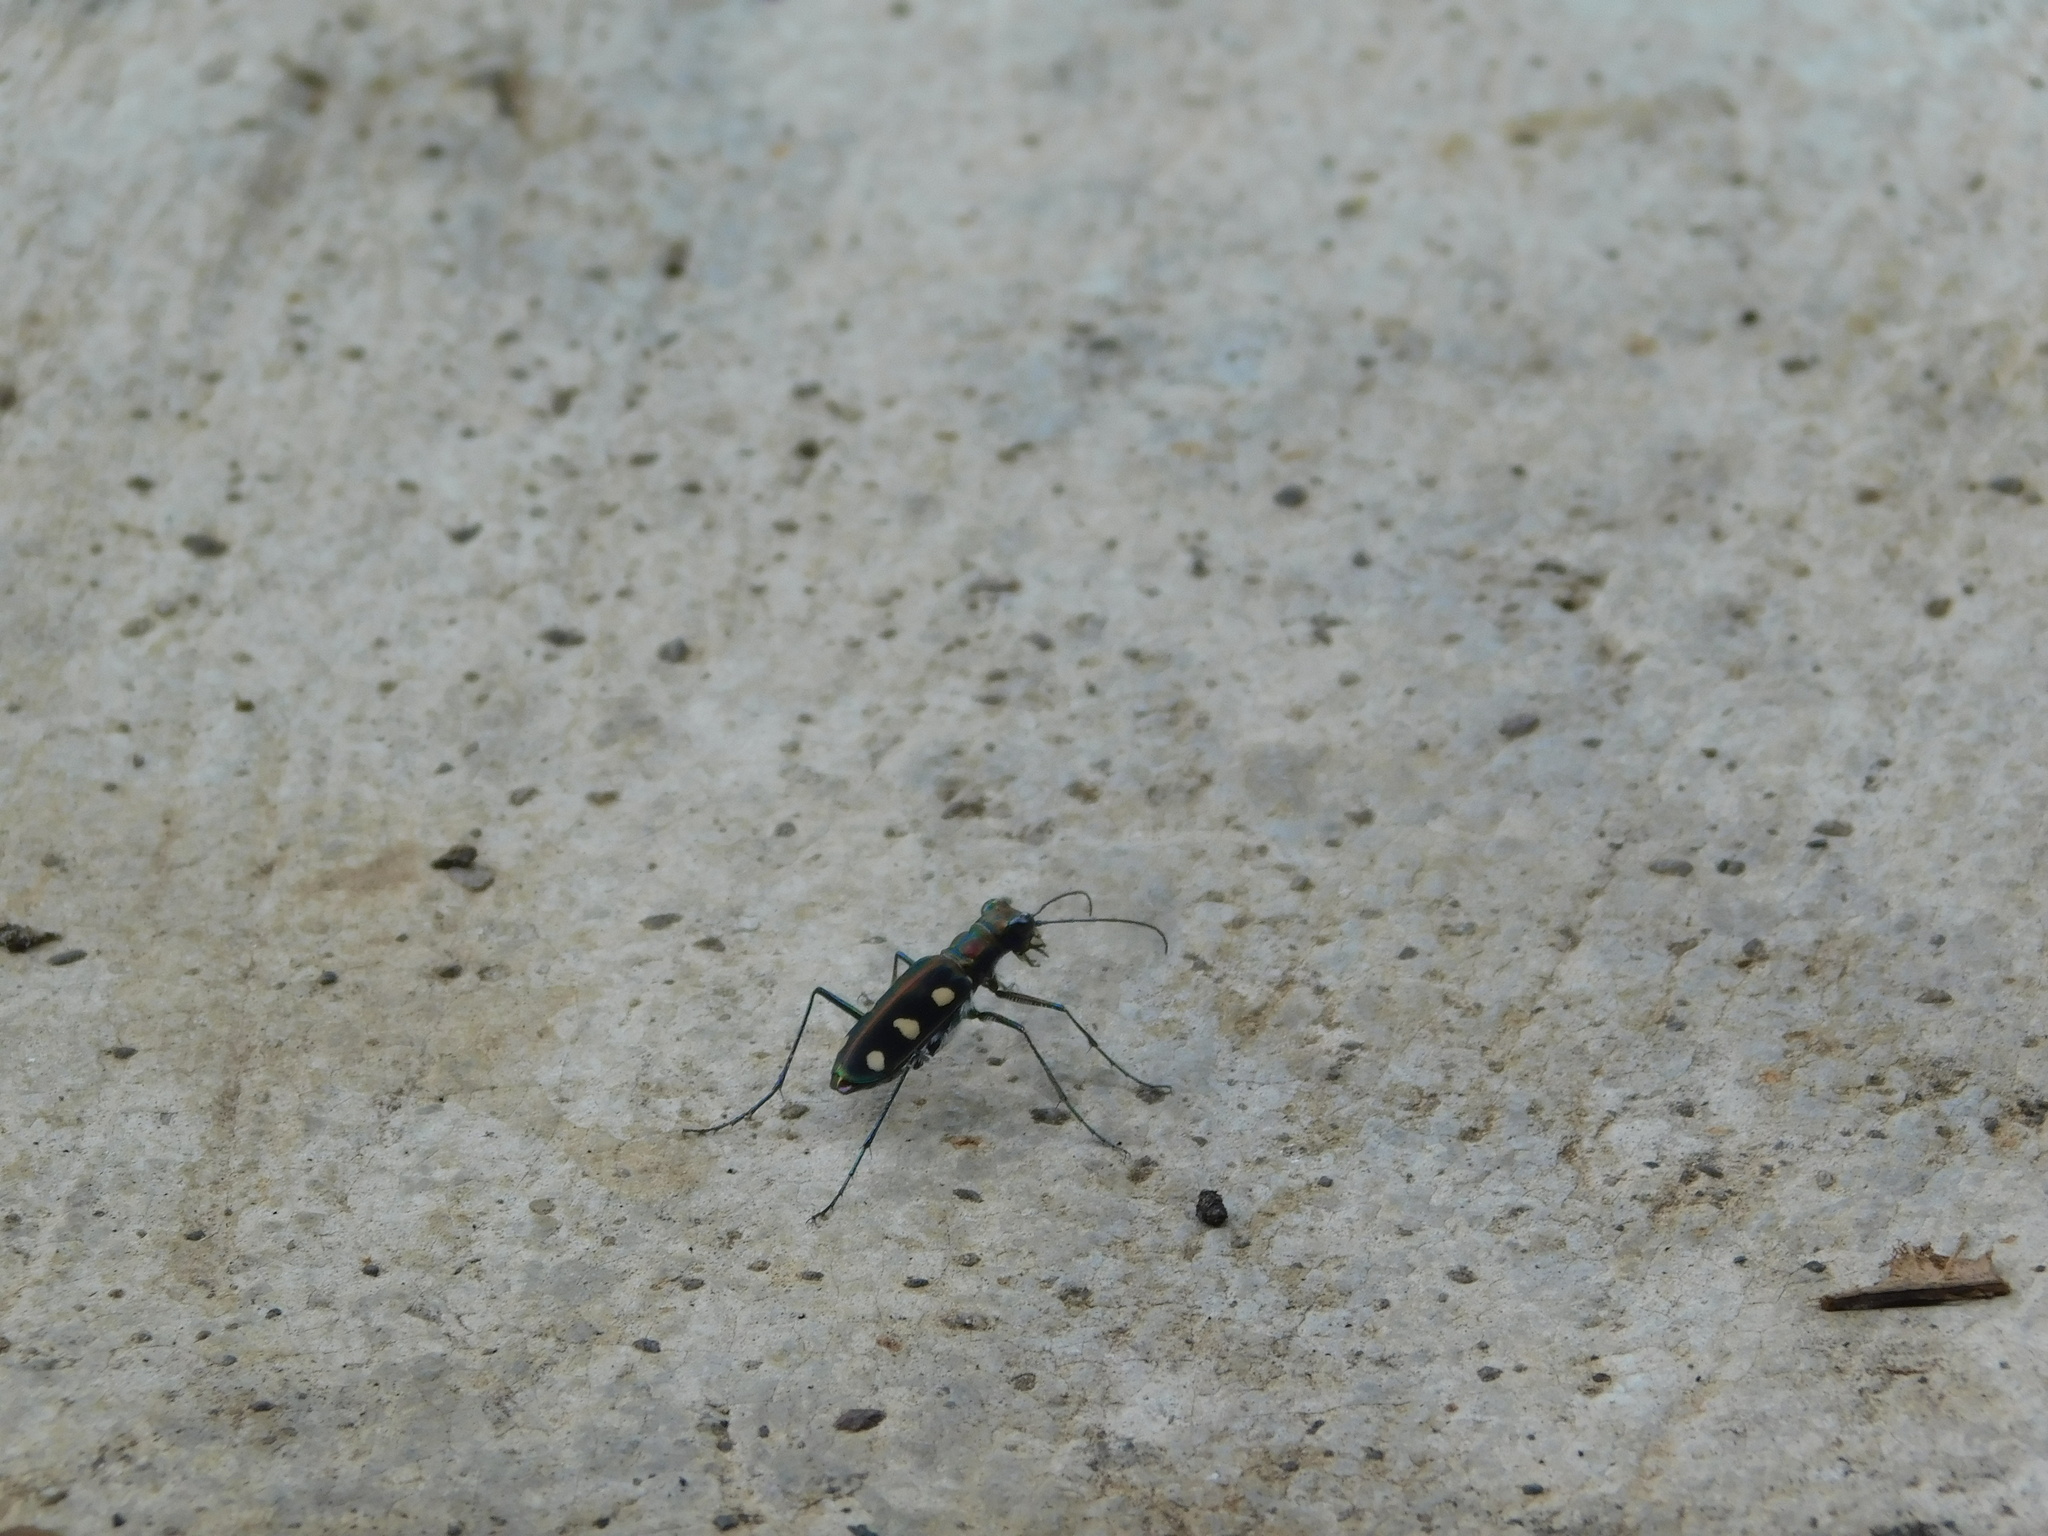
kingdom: Animalia
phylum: Arthropoda
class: Insecta
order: Coleoptera
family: Carabidae
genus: Cicindela
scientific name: Cicindela aurulenta
